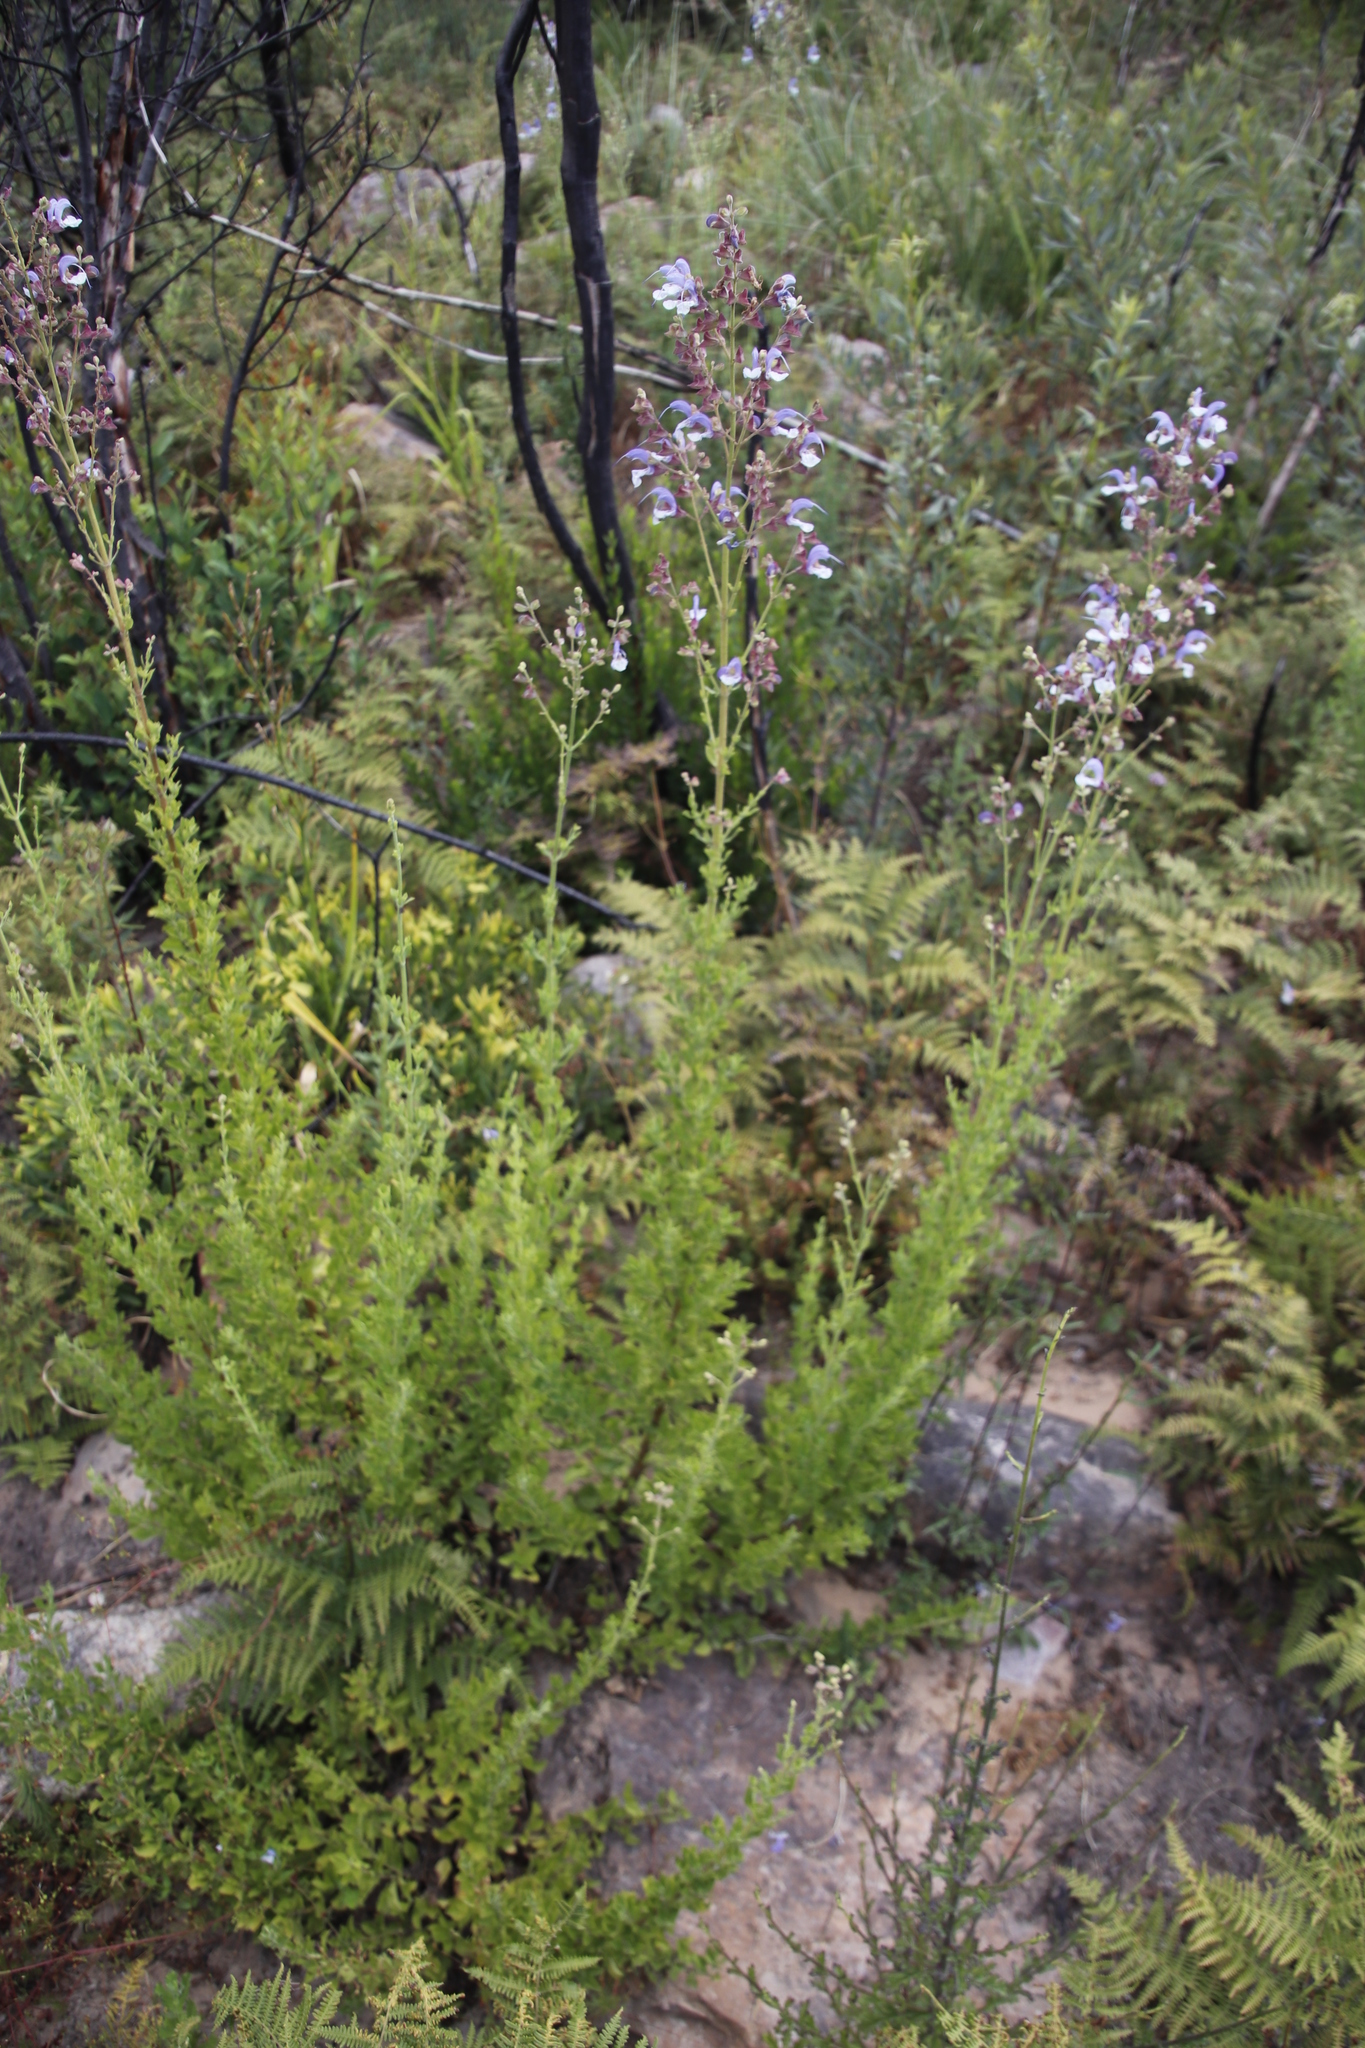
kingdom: Plantae
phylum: Tracheophyta
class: Magnoliopsida
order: Lamiales
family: Lamiaceae
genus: Salvia
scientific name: Salvia chamelaeagnea
